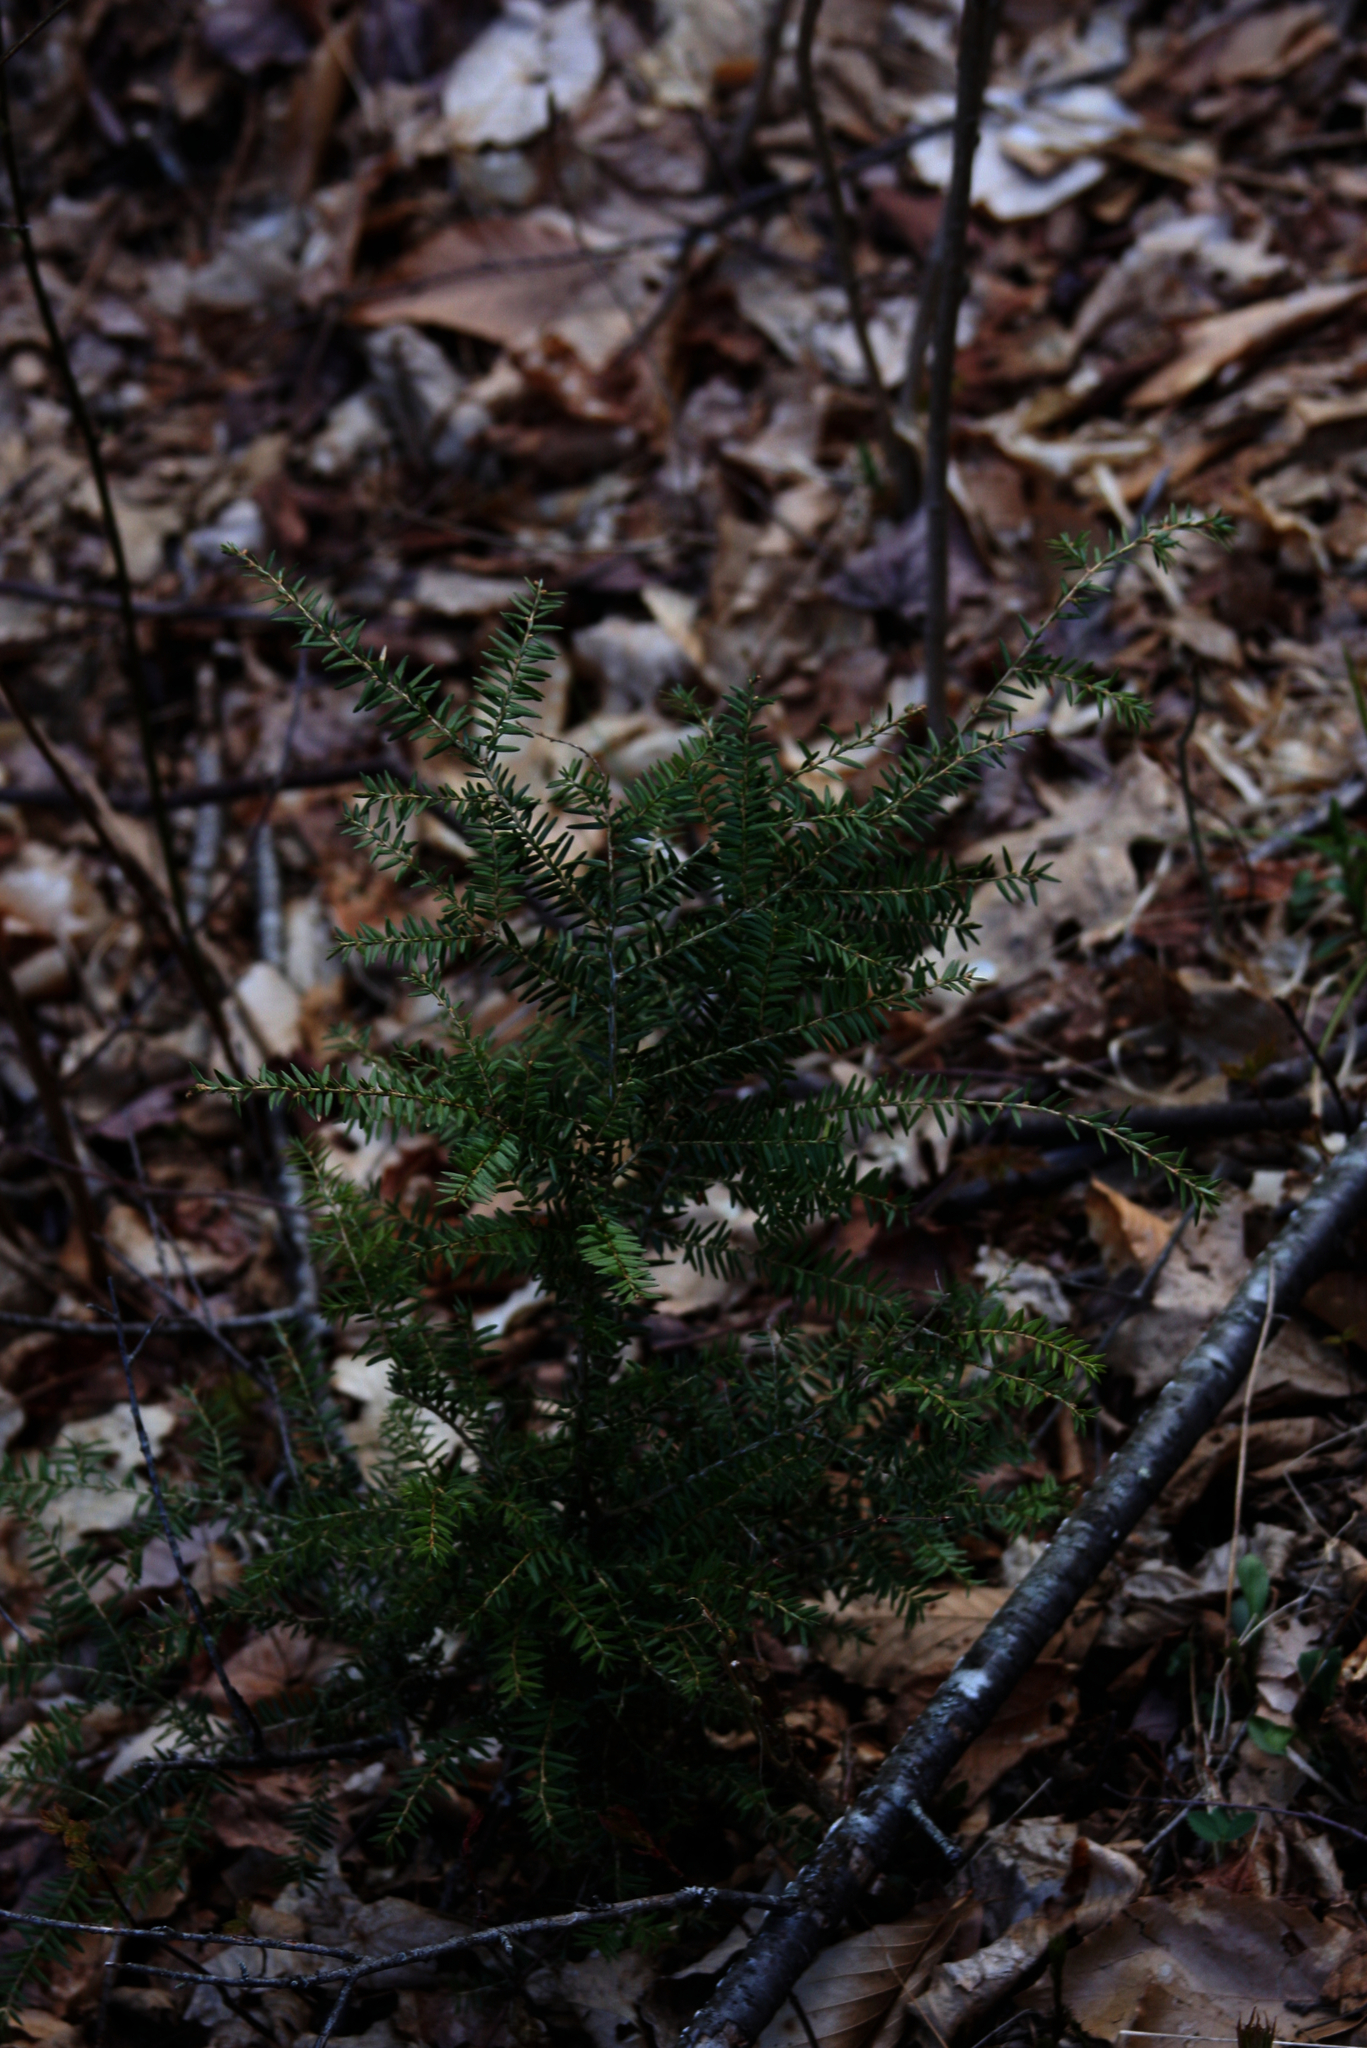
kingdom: Plantae
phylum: Tracheophyta
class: Pinopsida
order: Pinales
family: Pinaceae
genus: Tsuga
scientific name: Tsuga canadensis
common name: Eastern hemlock
